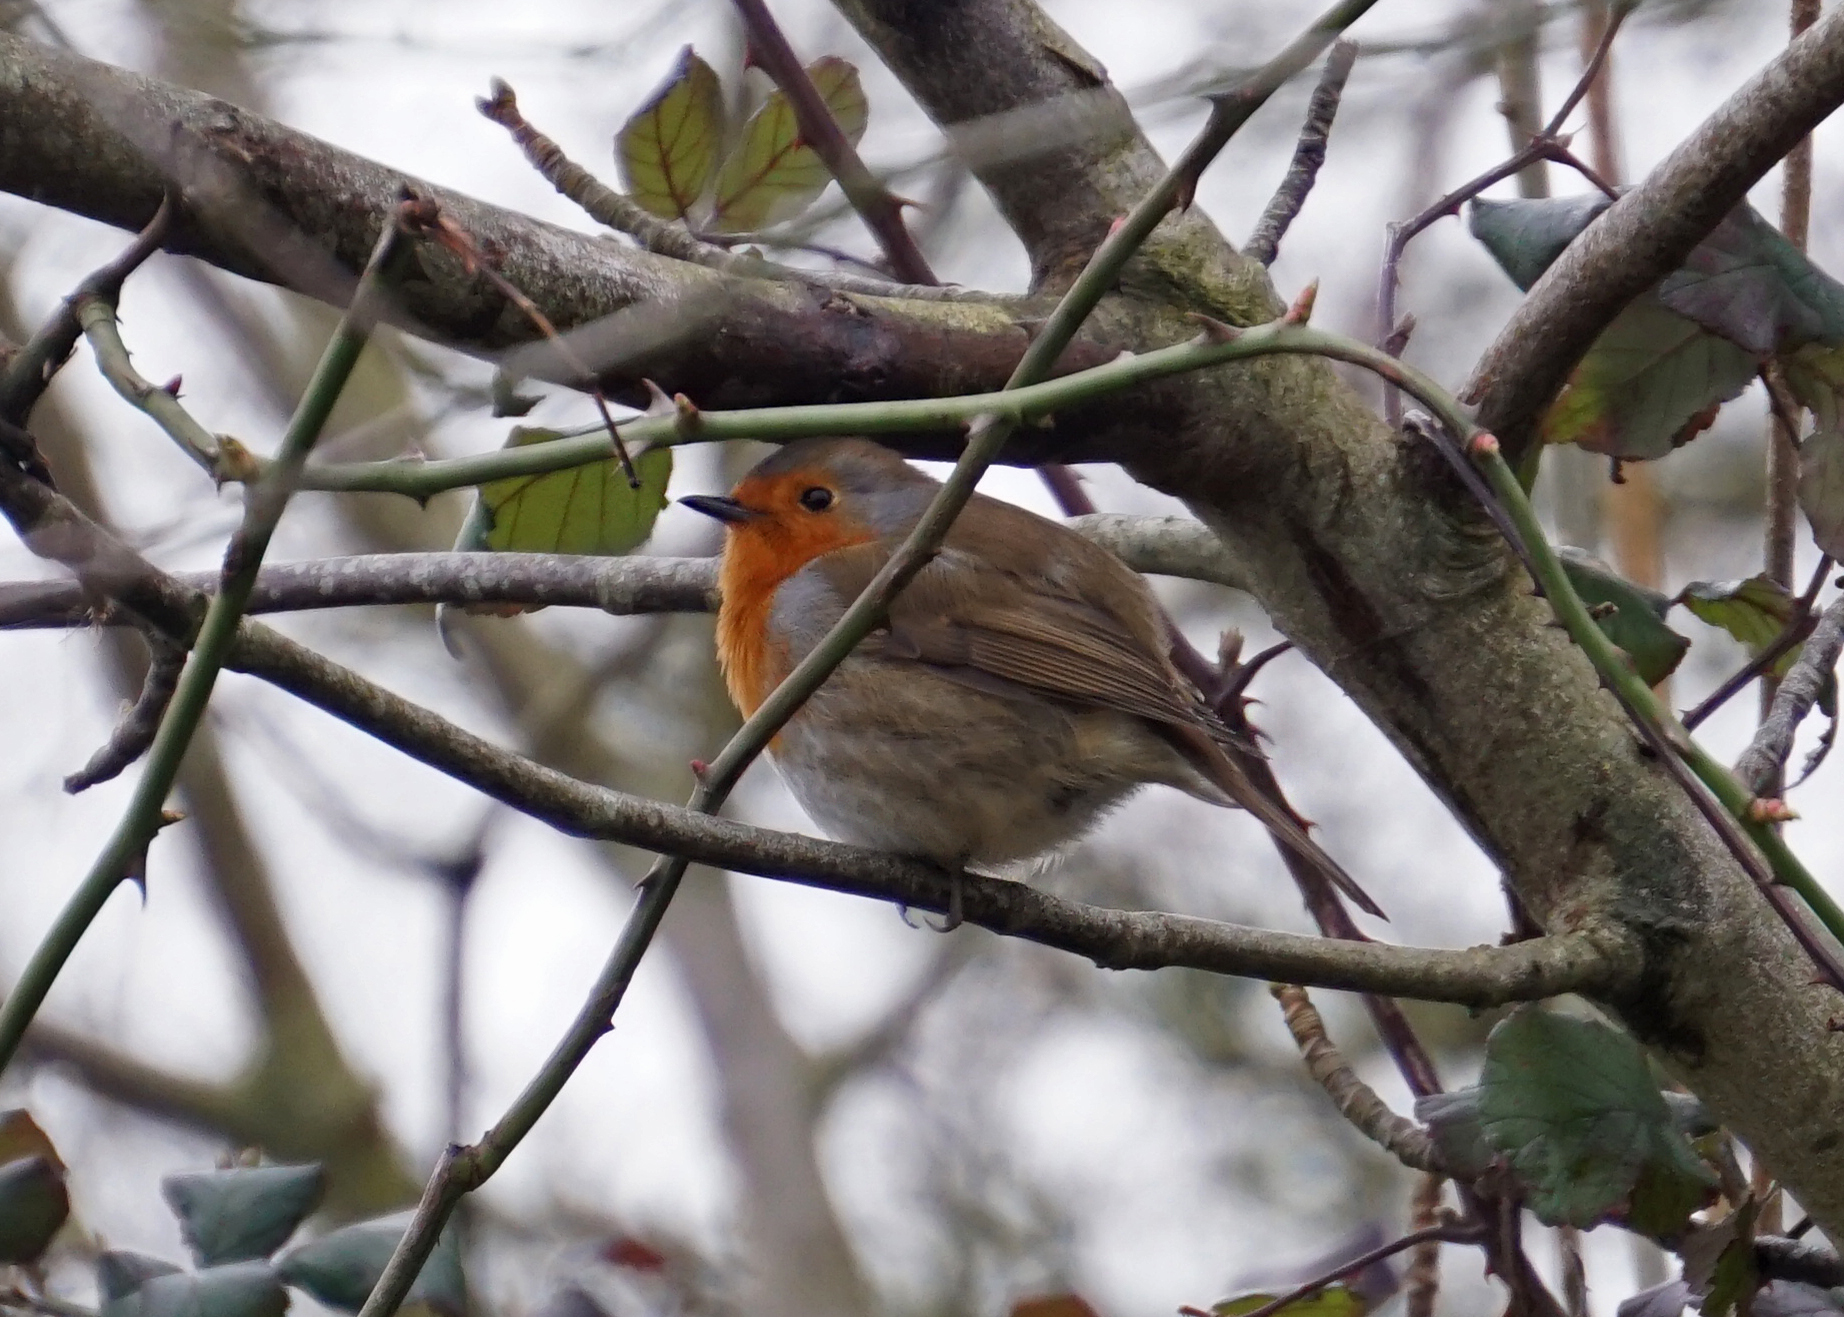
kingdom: Animalia
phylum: Chordata
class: Aves
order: Passeriformes
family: Muscicapidae
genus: Erithacus
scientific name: Erithacus rubecula
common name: European robin
